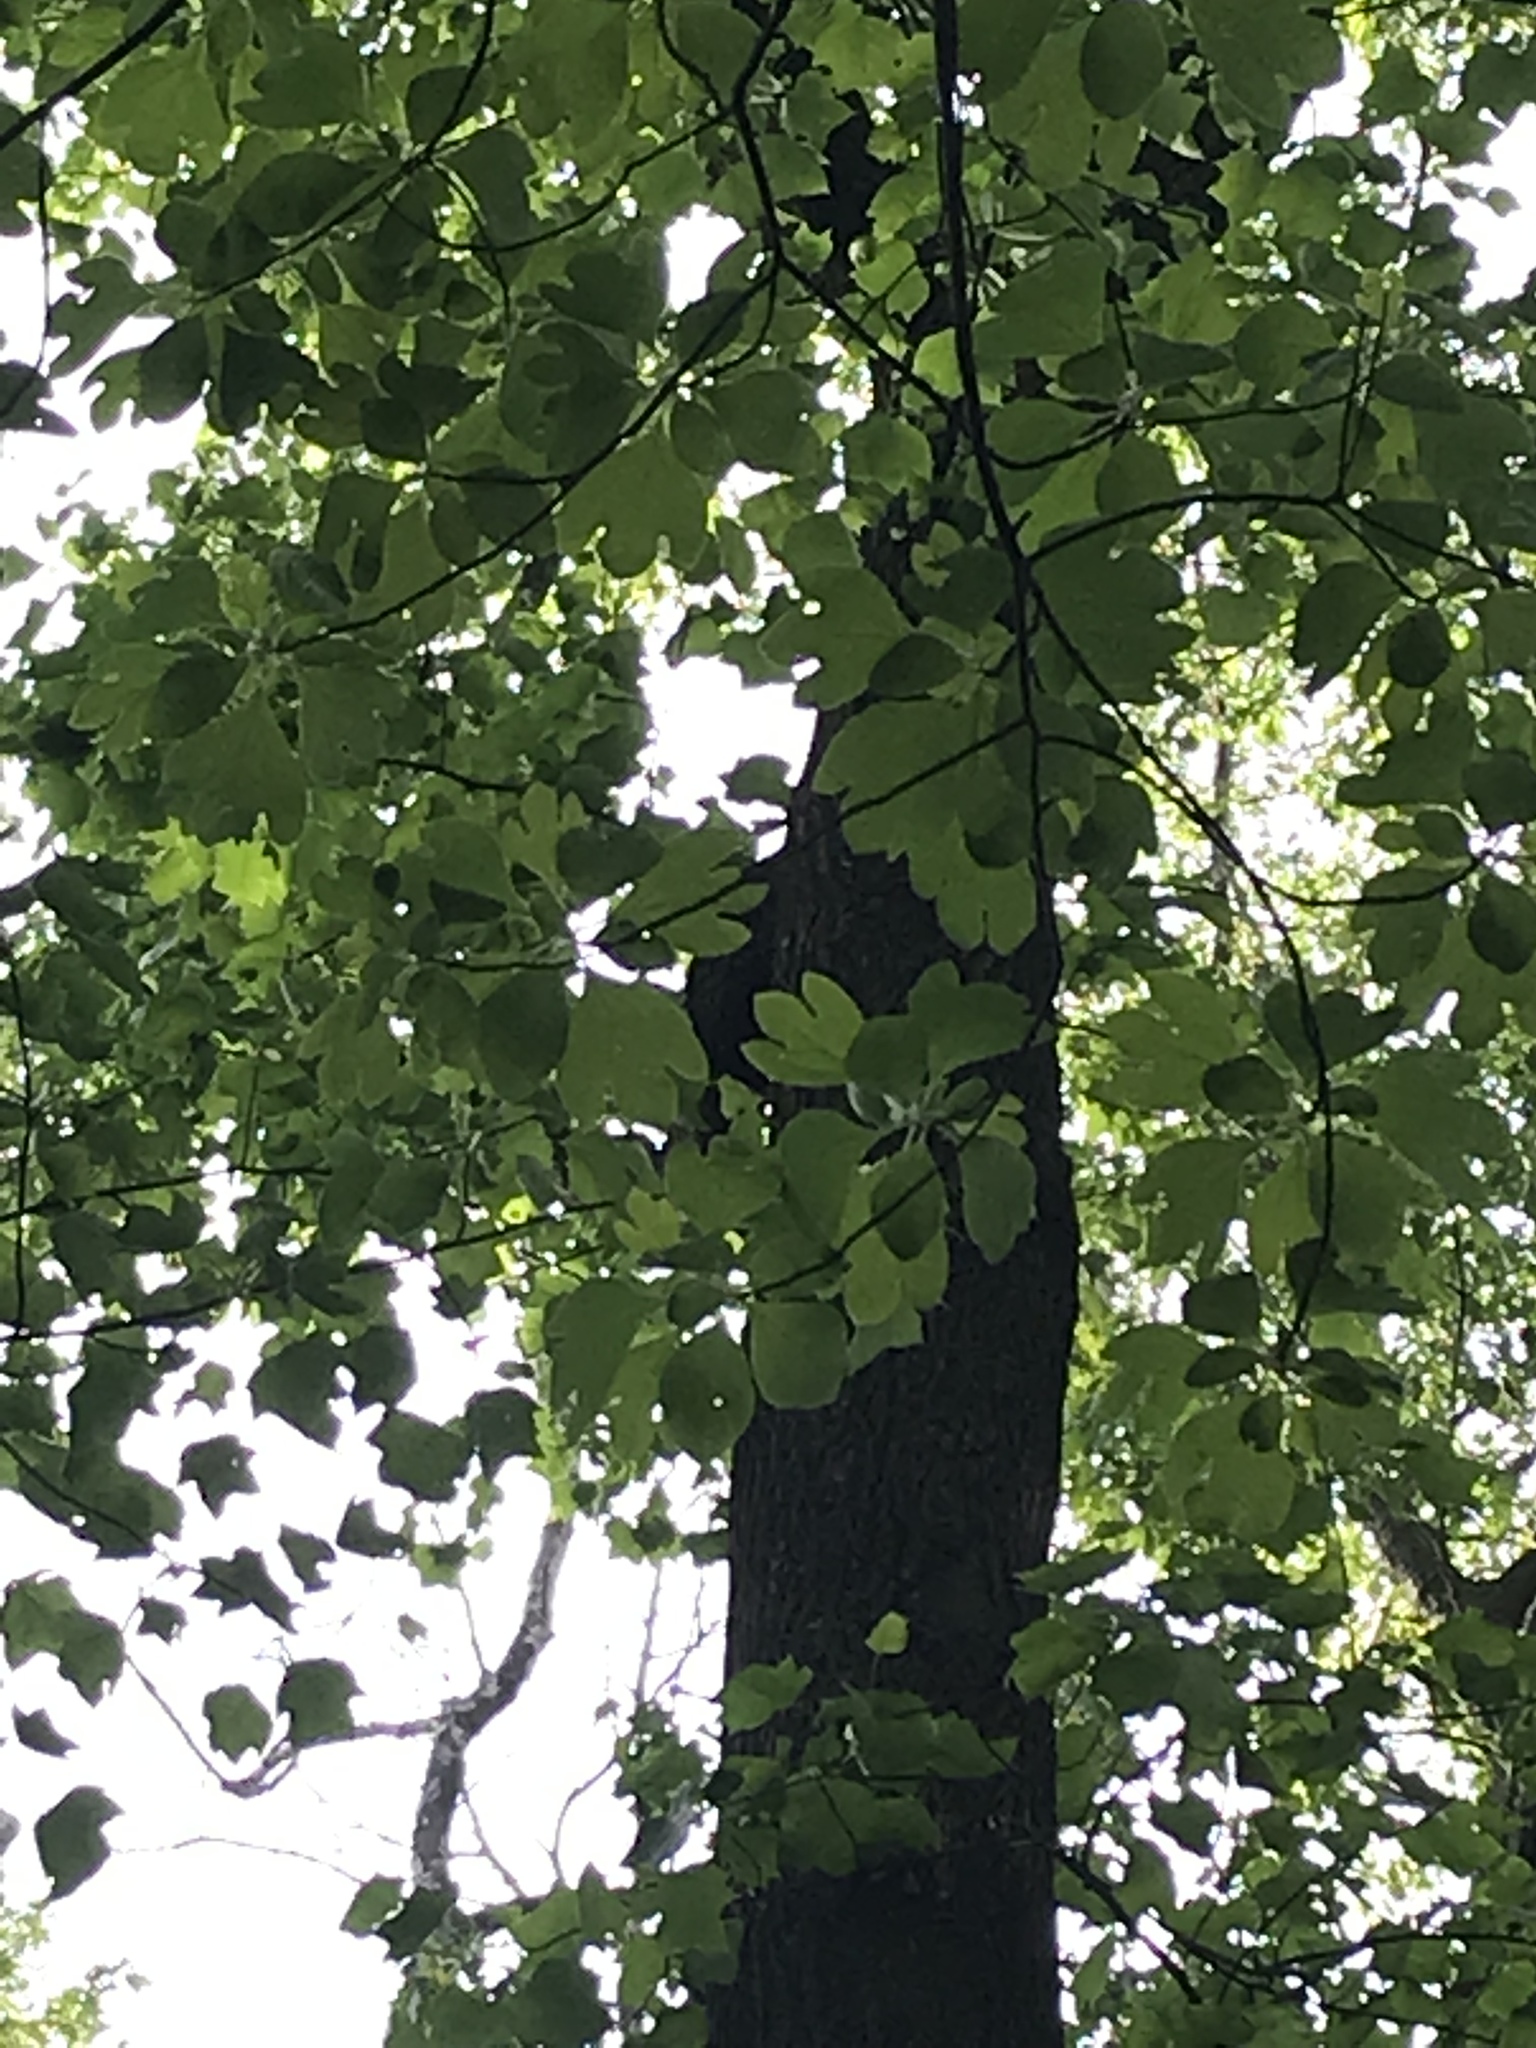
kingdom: Plantae
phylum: Tracheophyta
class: Magnoliopsida
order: Laurales
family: Lauraceae
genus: Sassafras
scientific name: Sassafras albidum
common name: Sassafras
